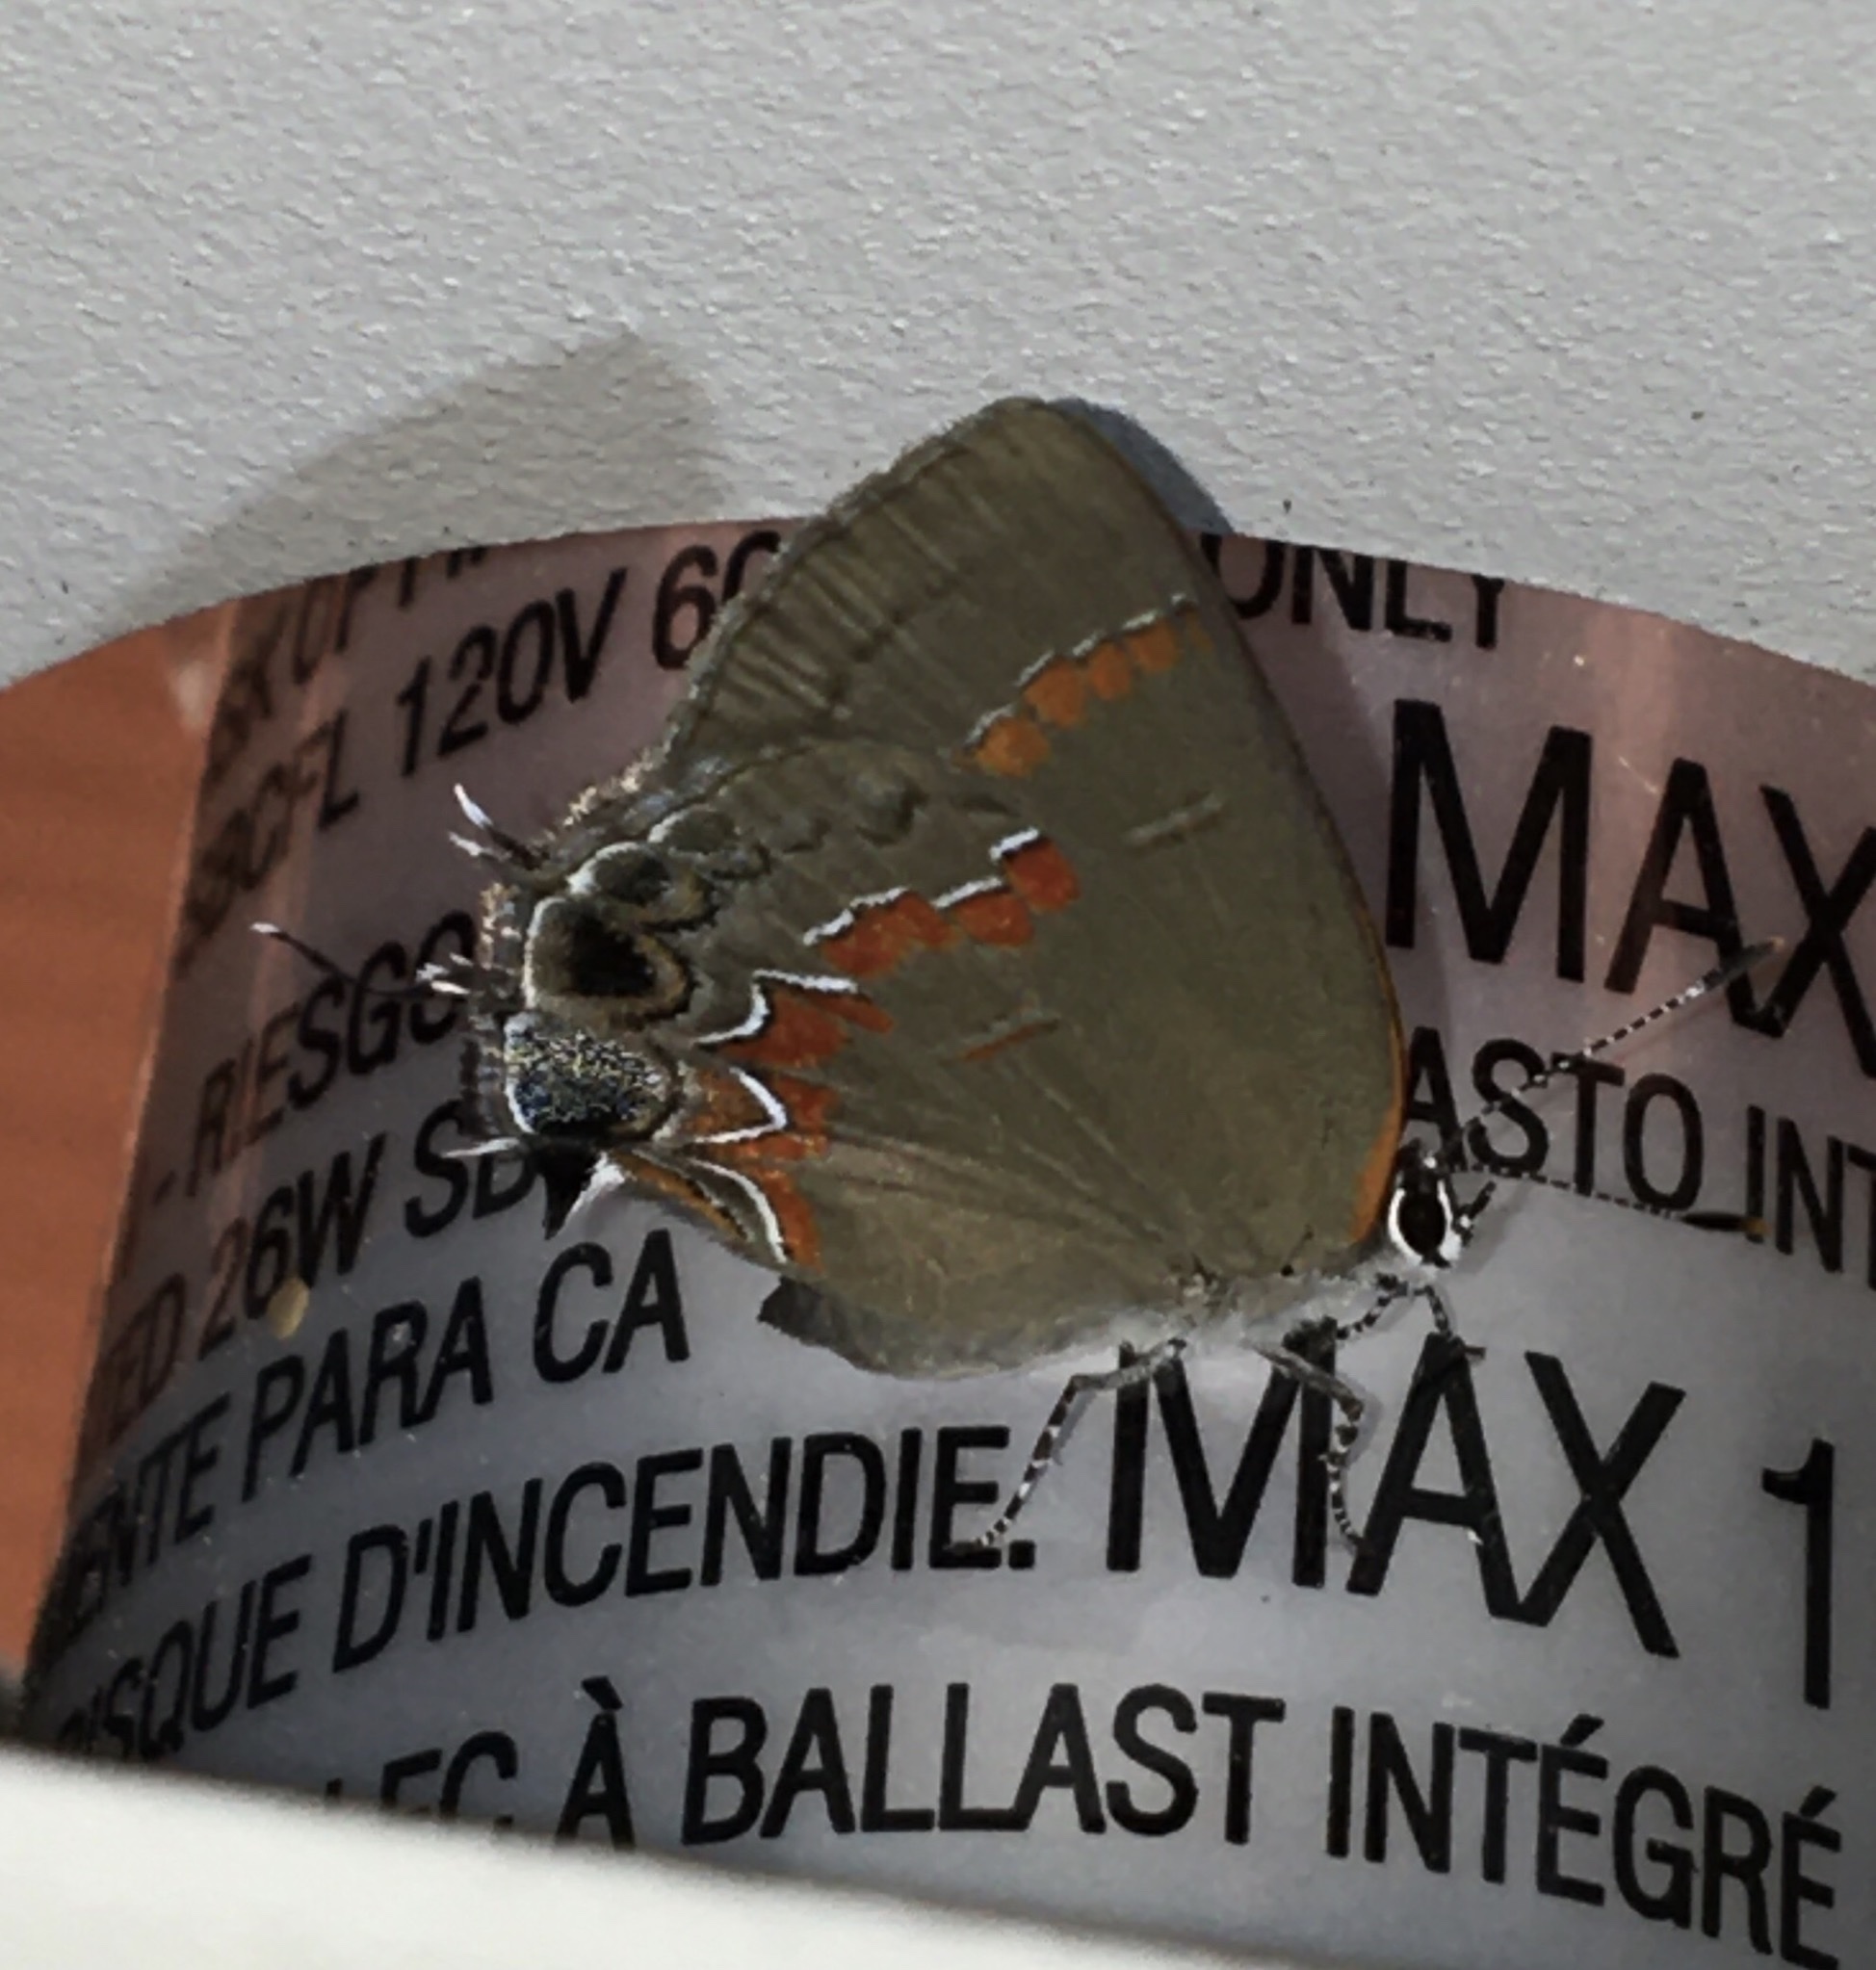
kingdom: Animalia
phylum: Arthropoda
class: Insecta
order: Lepidoptera
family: Lycaenidae
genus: Calycopis
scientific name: Calycopis cecrops
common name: Red-banded hairstreak
